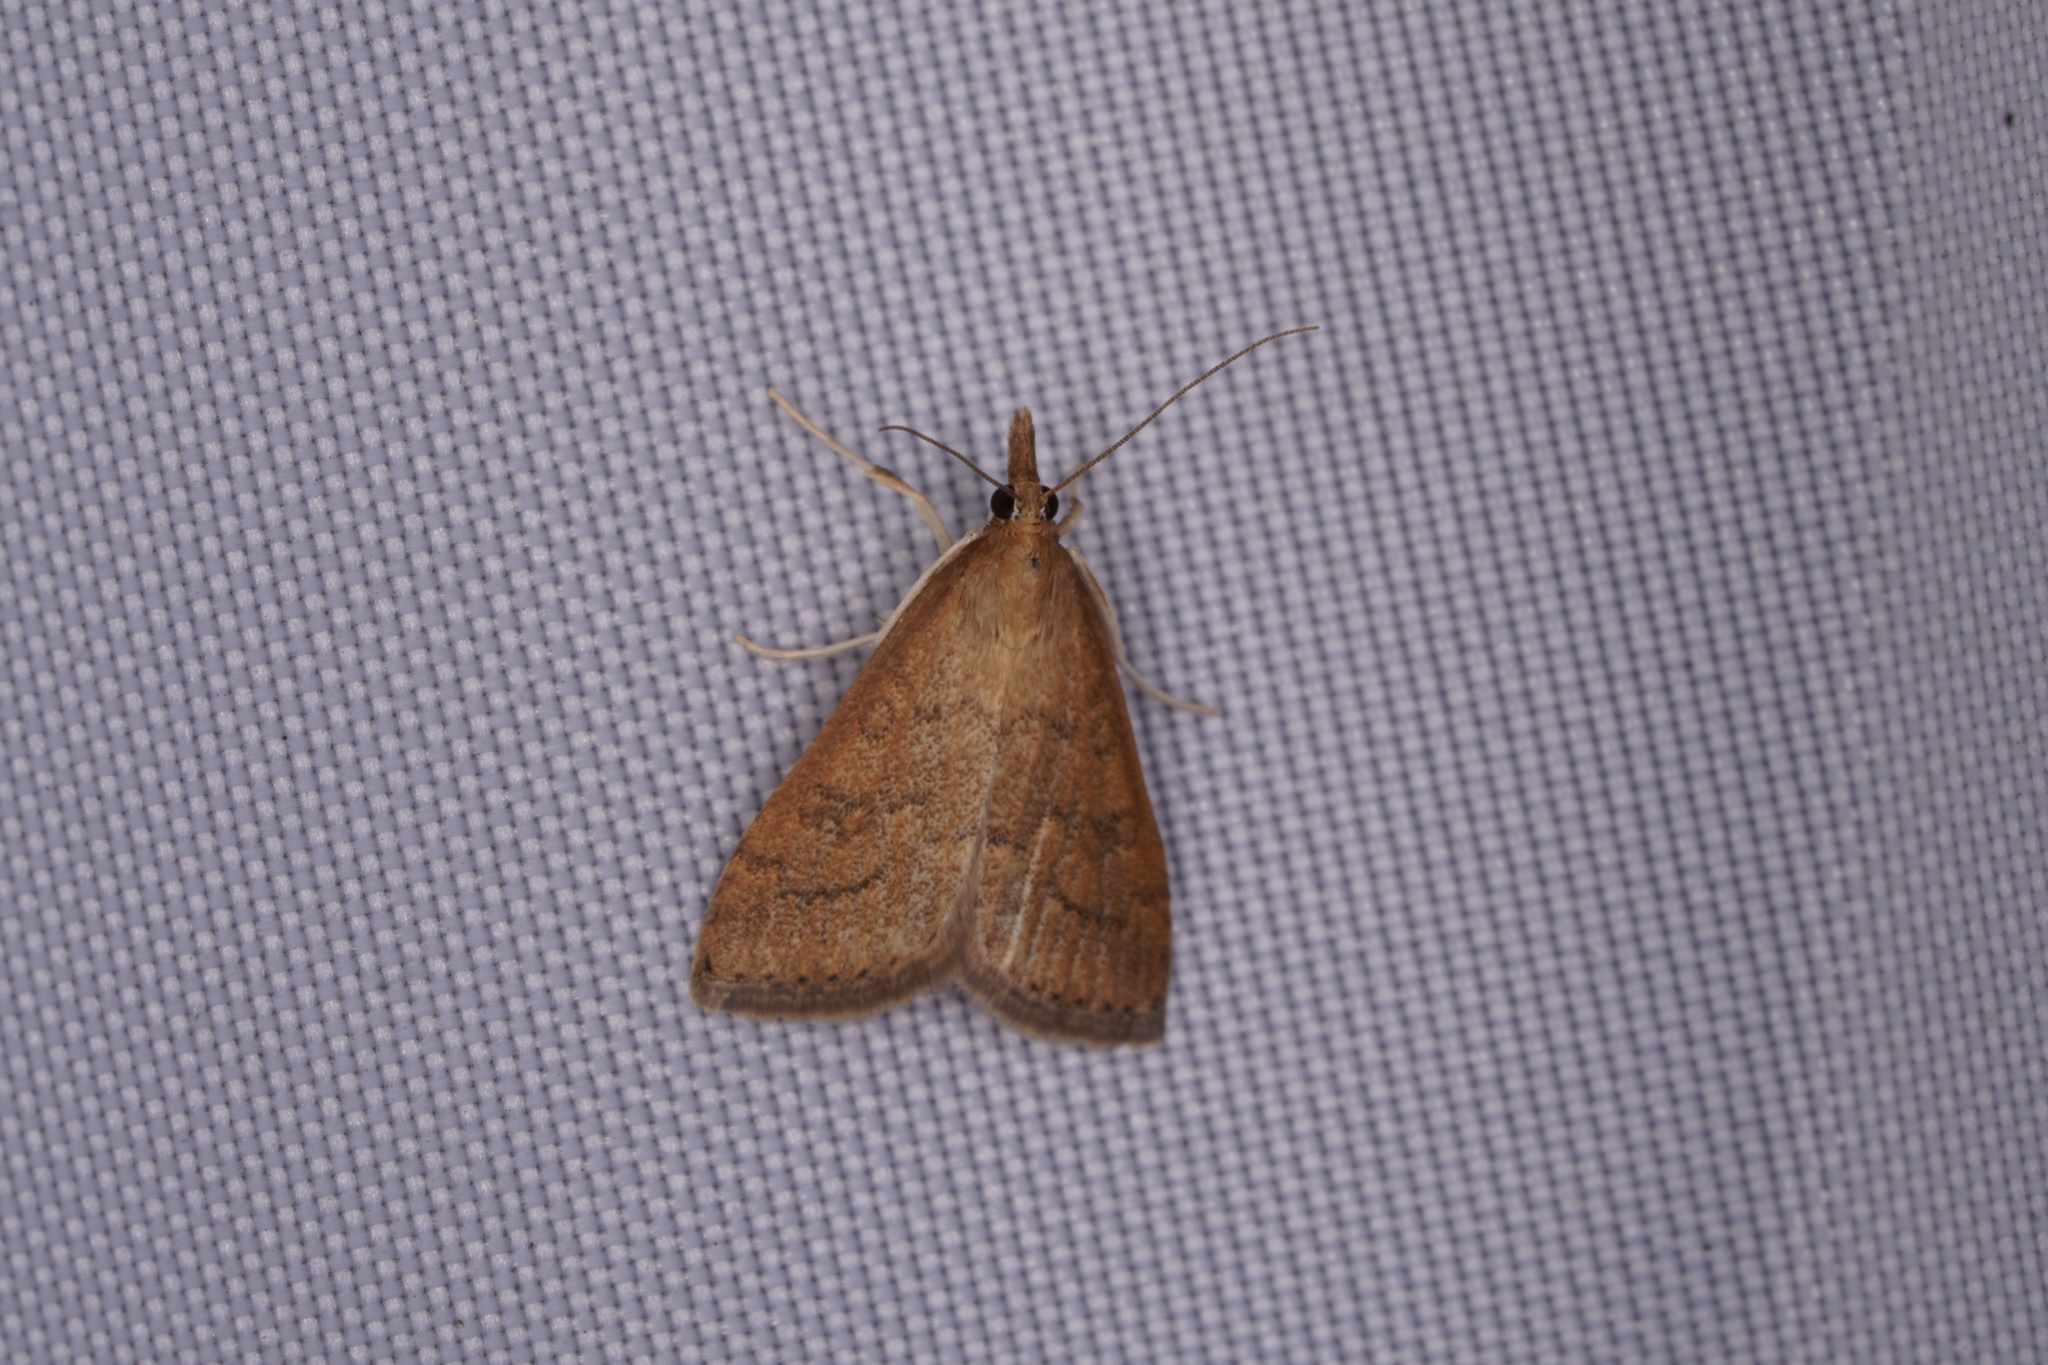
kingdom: Animalia
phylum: Arthropoda
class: Insecta
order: Lepidoptera
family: Crambidae
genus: Udea
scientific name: Udea rubigalis
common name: Celery leaftier moth
